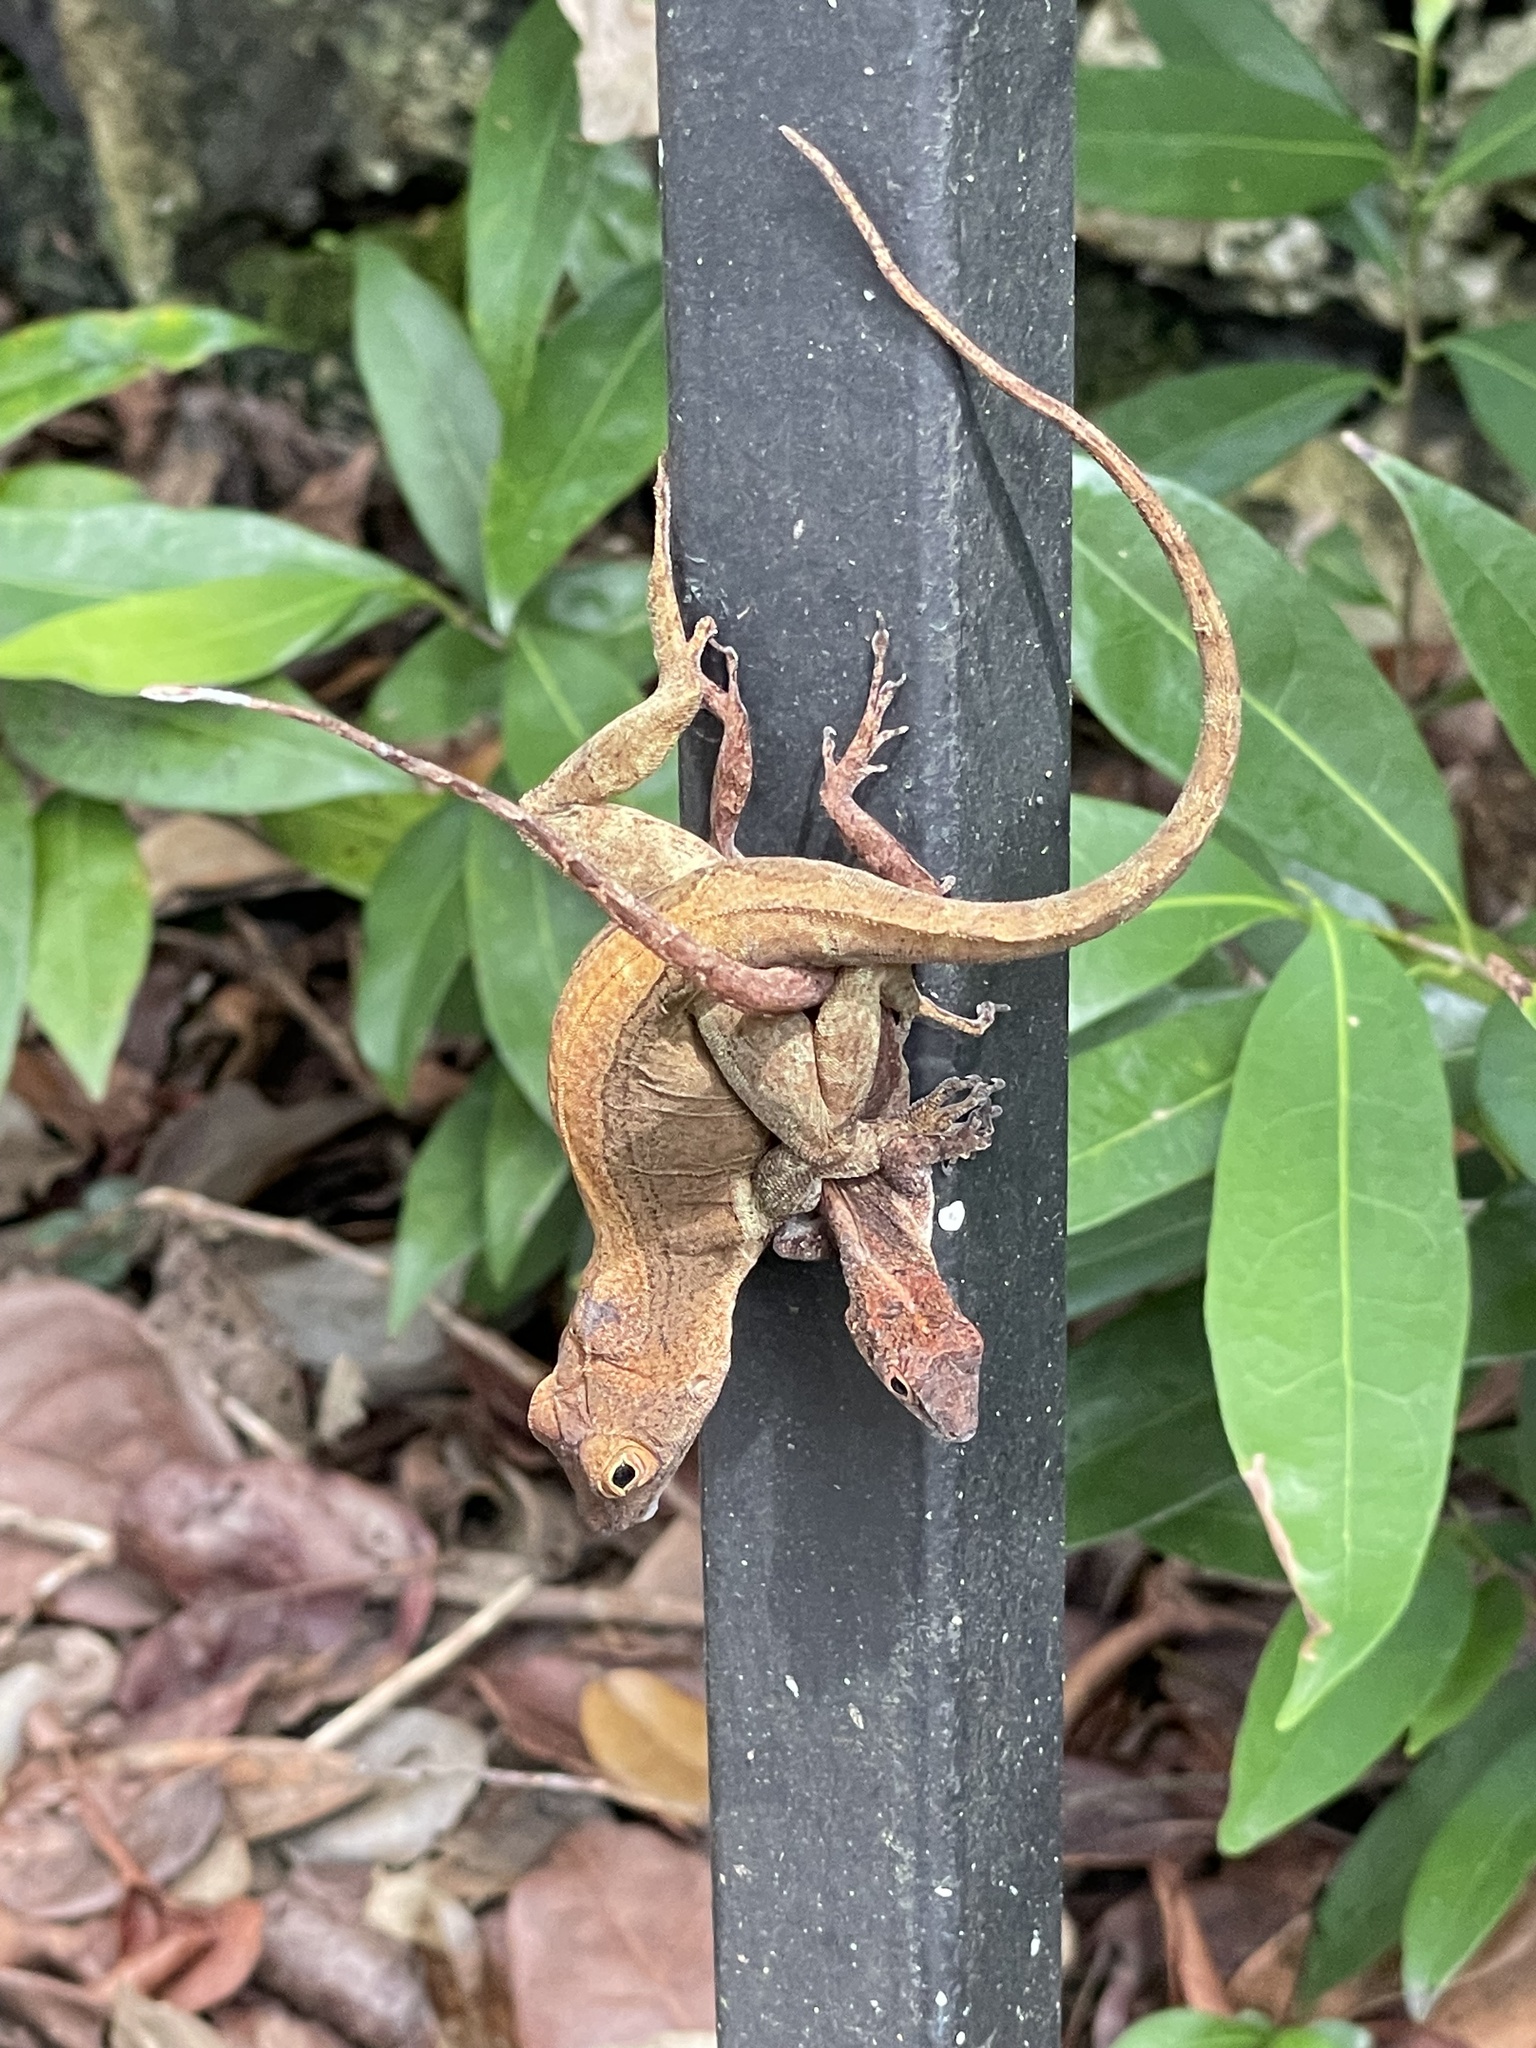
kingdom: Animalia
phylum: Chordata
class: Squamata
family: Dactyloidae
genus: Anolis
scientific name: Anolis cristatellus
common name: Crested anole
